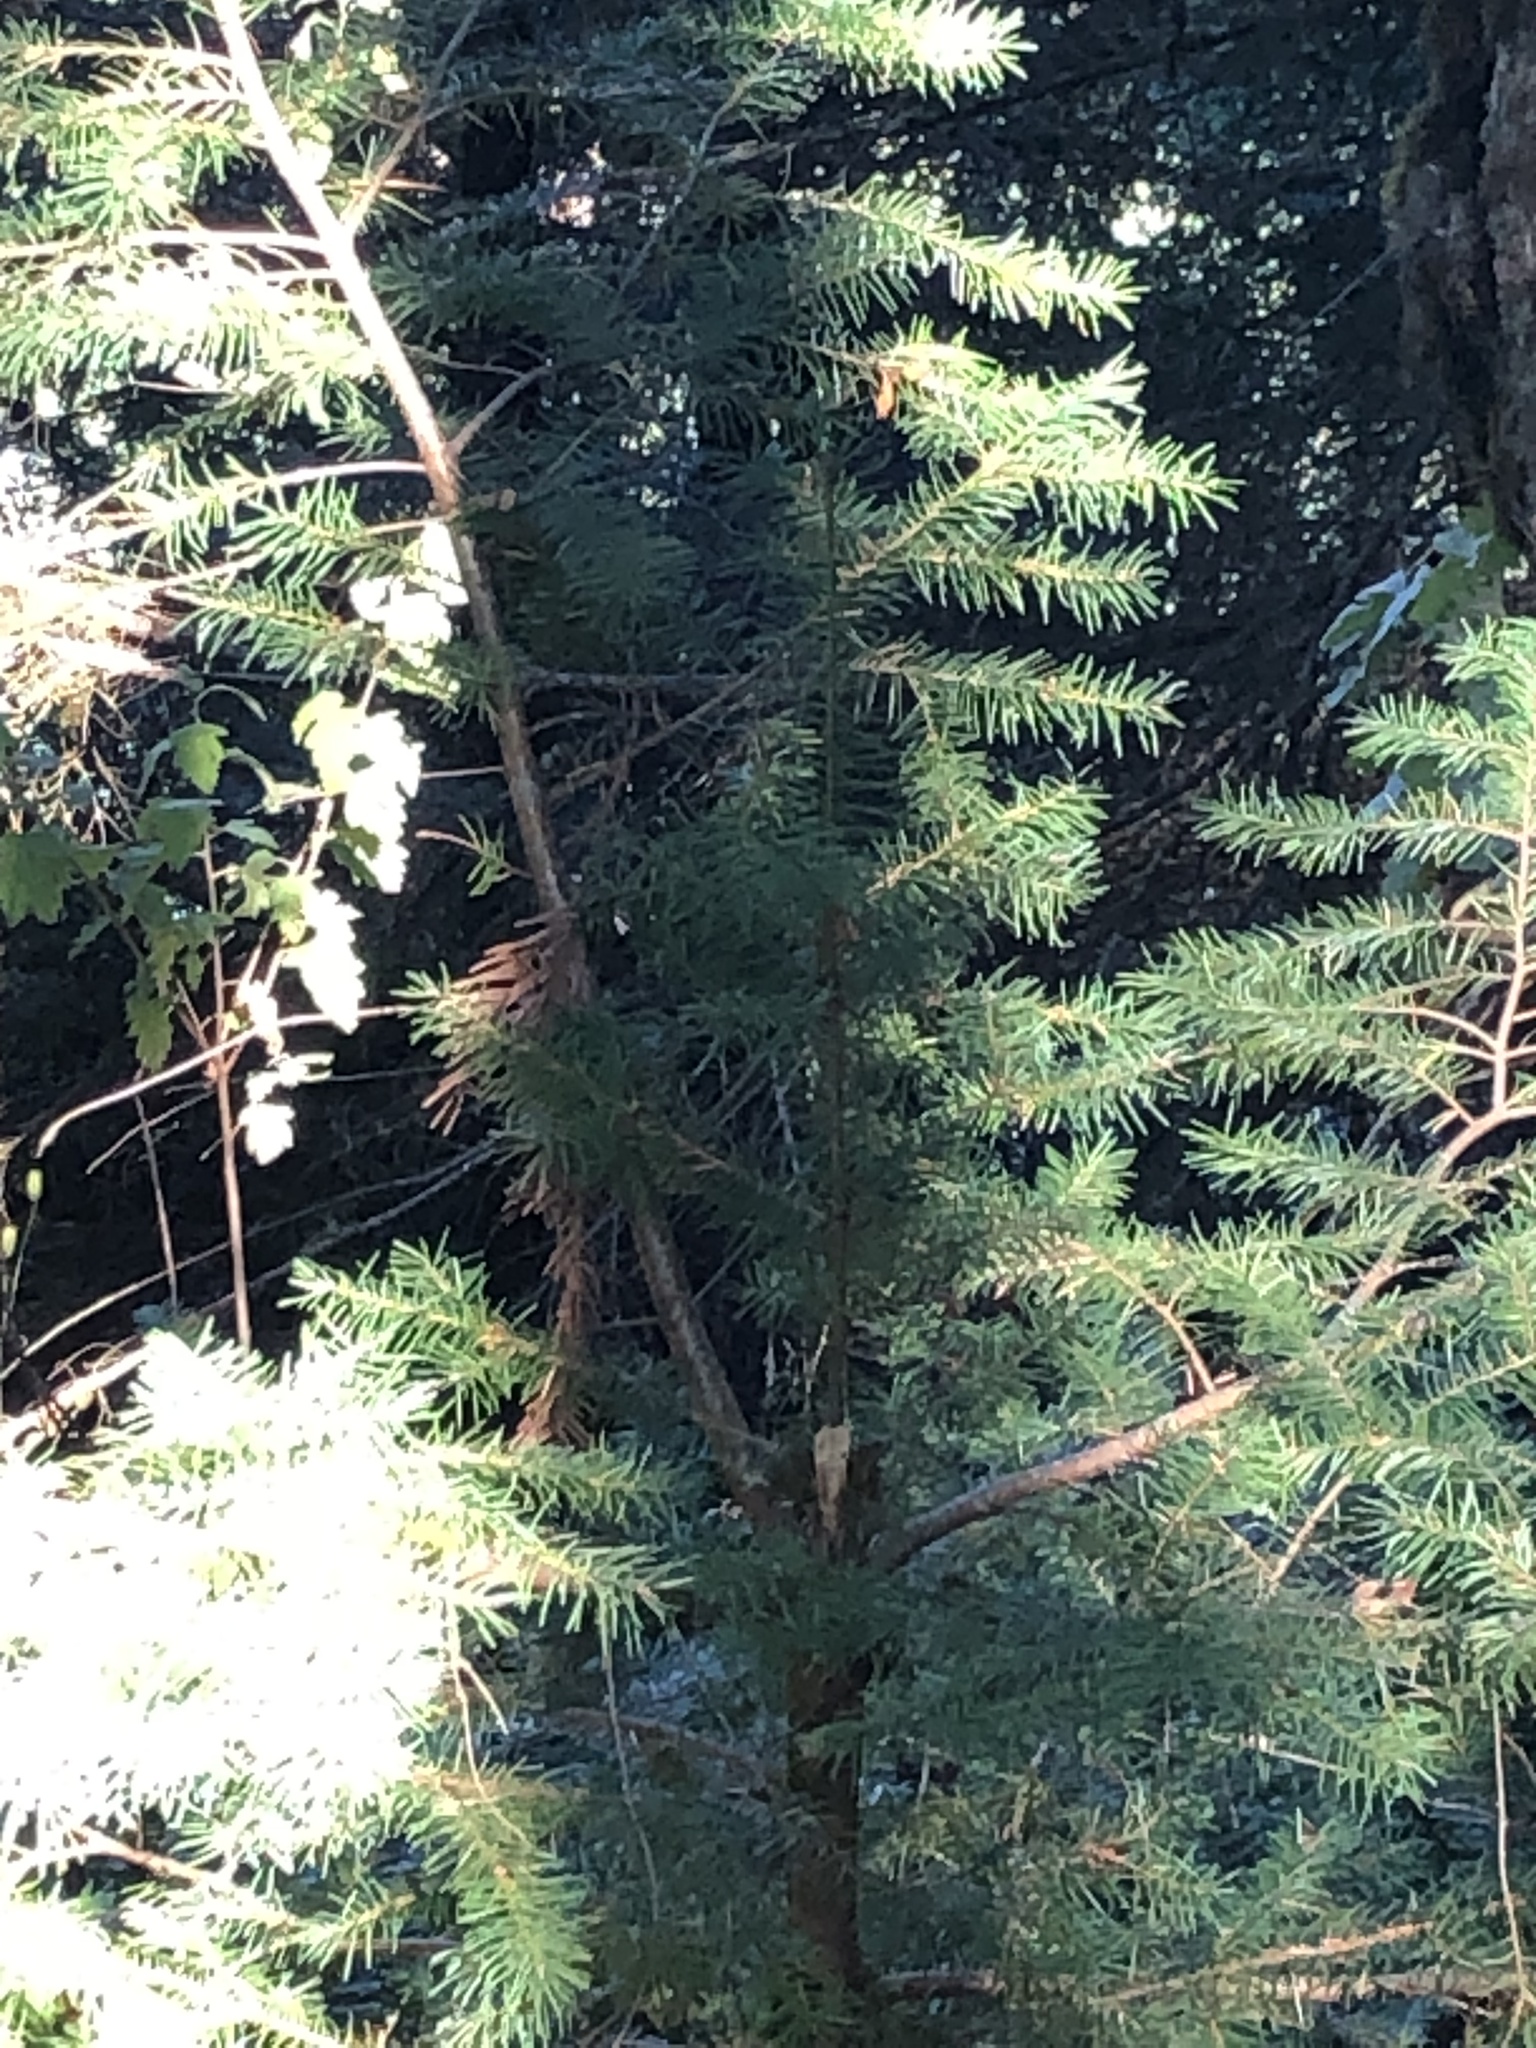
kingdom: Plantae
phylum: Tracheophyta
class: Pinopsida
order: Pinales
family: Pinaceae
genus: Pseudotsuga
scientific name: Pseudotsuga menziesii
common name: Douglas fir
